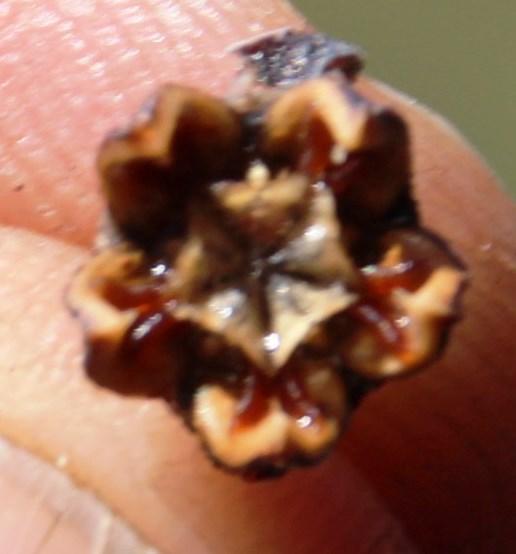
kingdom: Plantae
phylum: Tracheophyta
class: Magnoliopsida
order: Caryophyllales
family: Aizoaceae
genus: Ruschia
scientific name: Ruschia pungens
